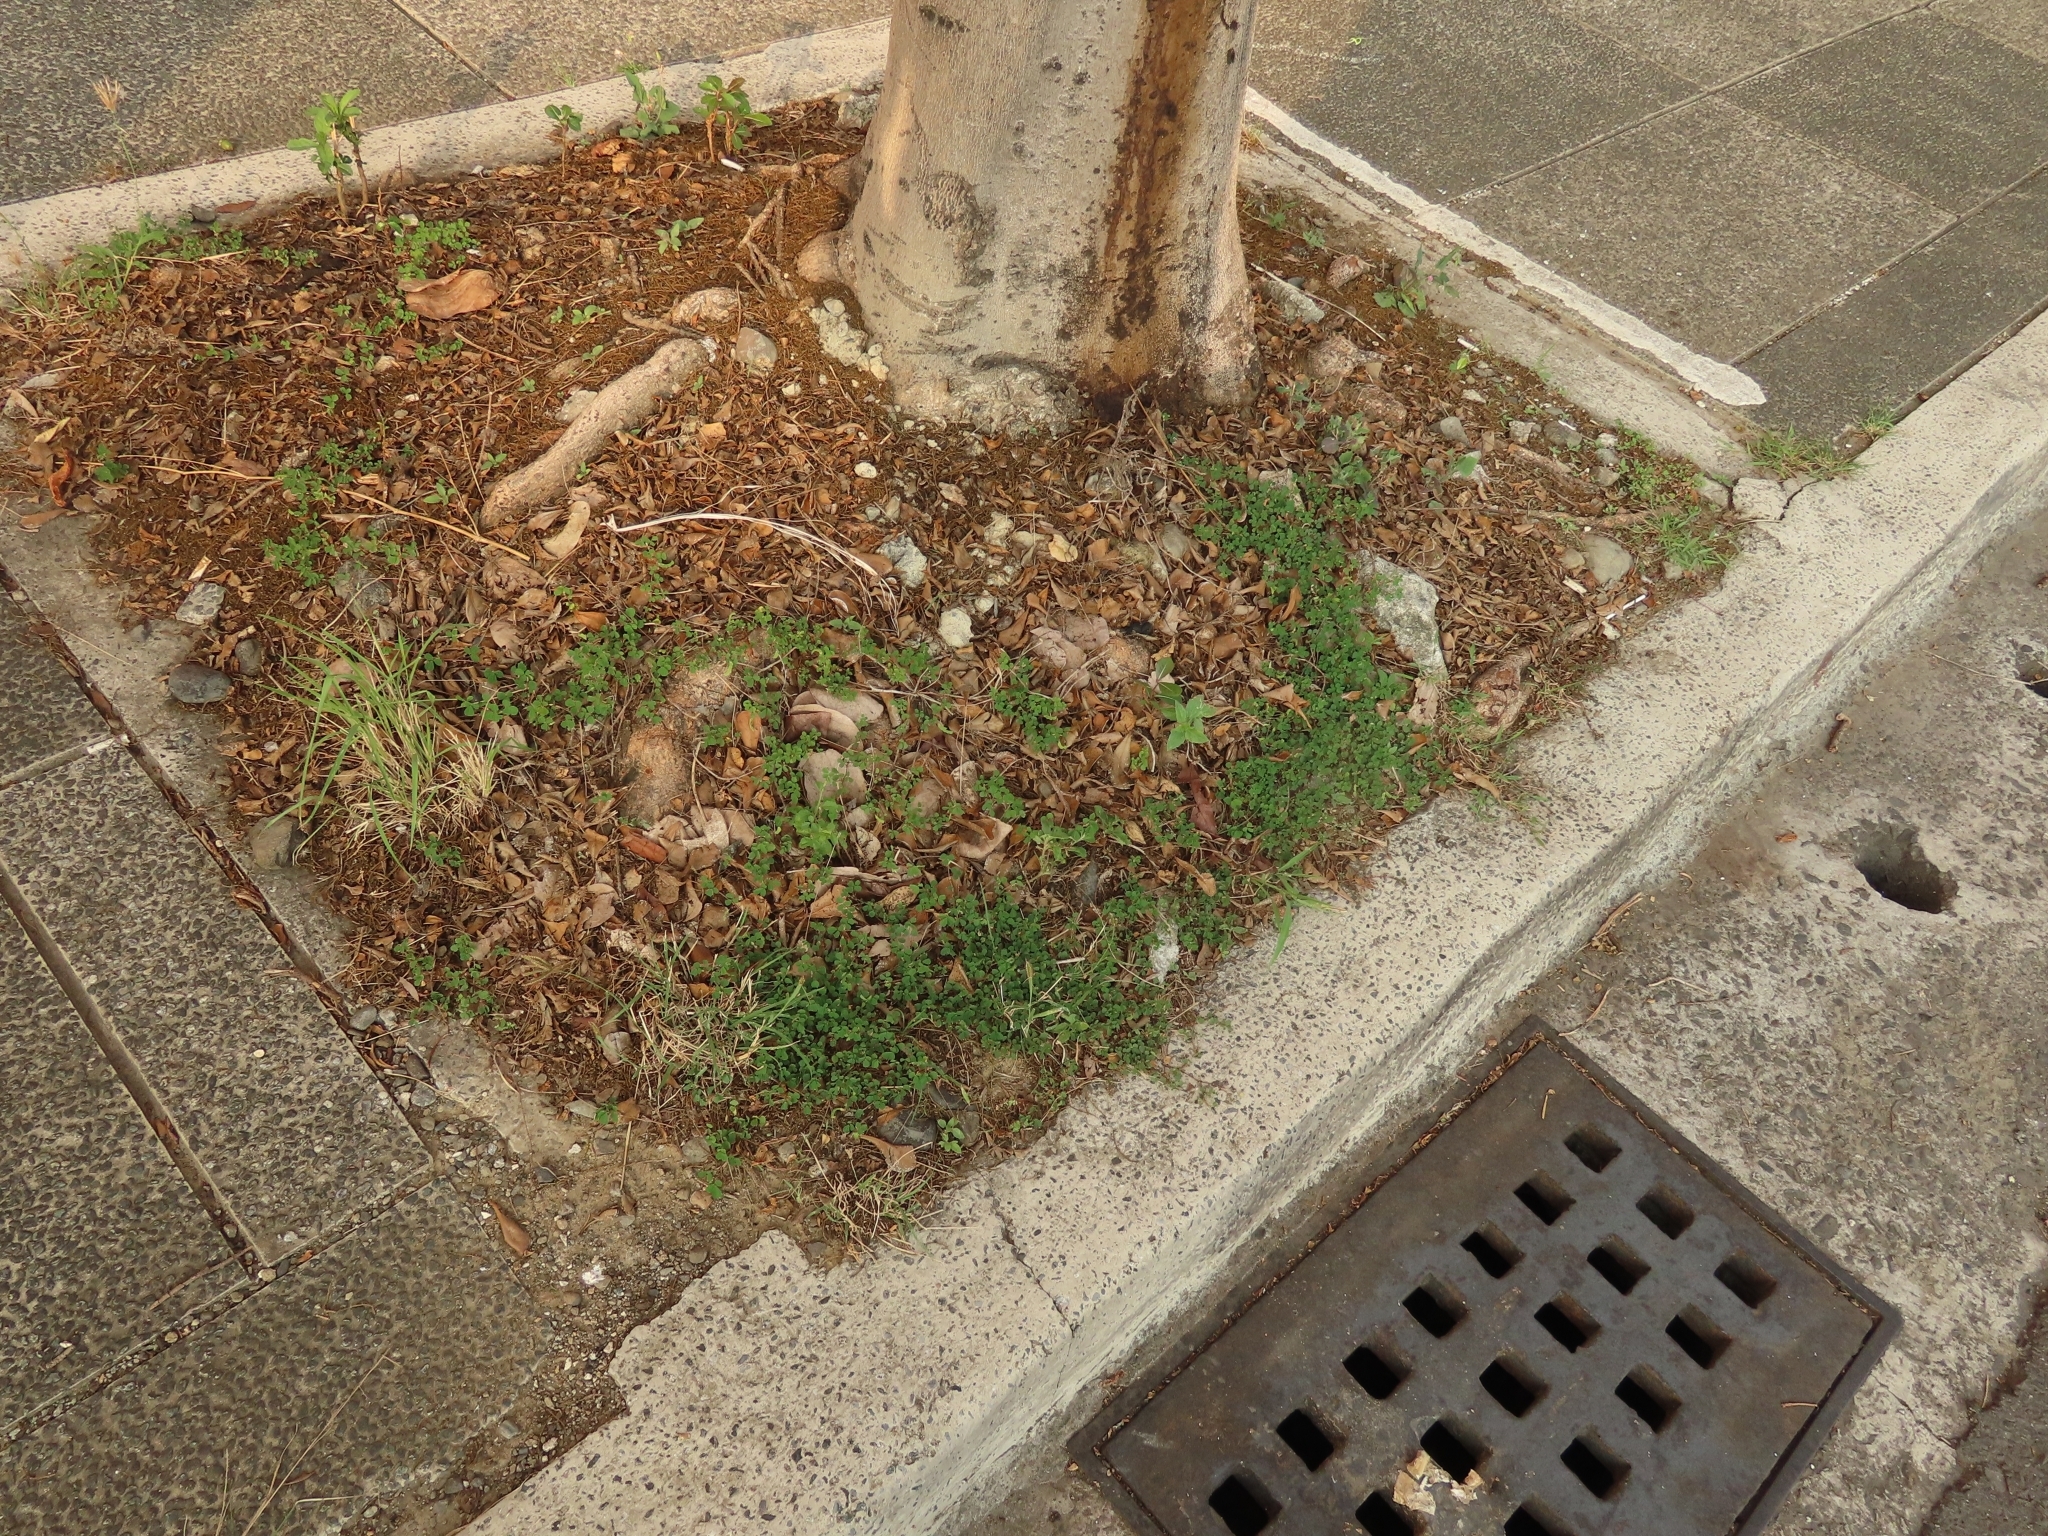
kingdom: Plantae
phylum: Tracheophyta
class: Magnoliopsida
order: Fabales
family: Fabaceae
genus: Grona
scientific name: Grona triflora
